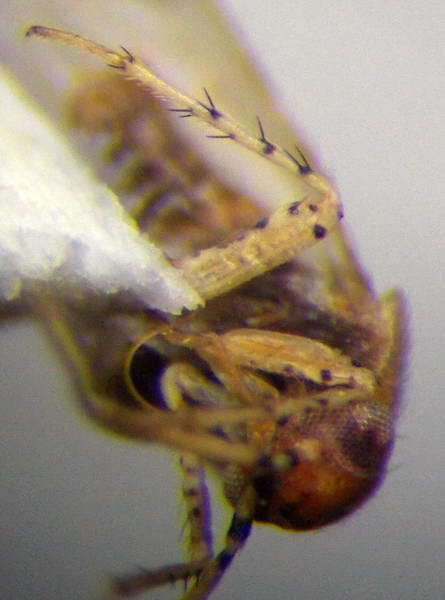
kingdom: Animalia
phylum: Arthropoda
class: Insecta
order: Hemiptera
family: Miridae
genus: Campylomma
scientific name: Campylomma verbasci
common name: Mullein bug
